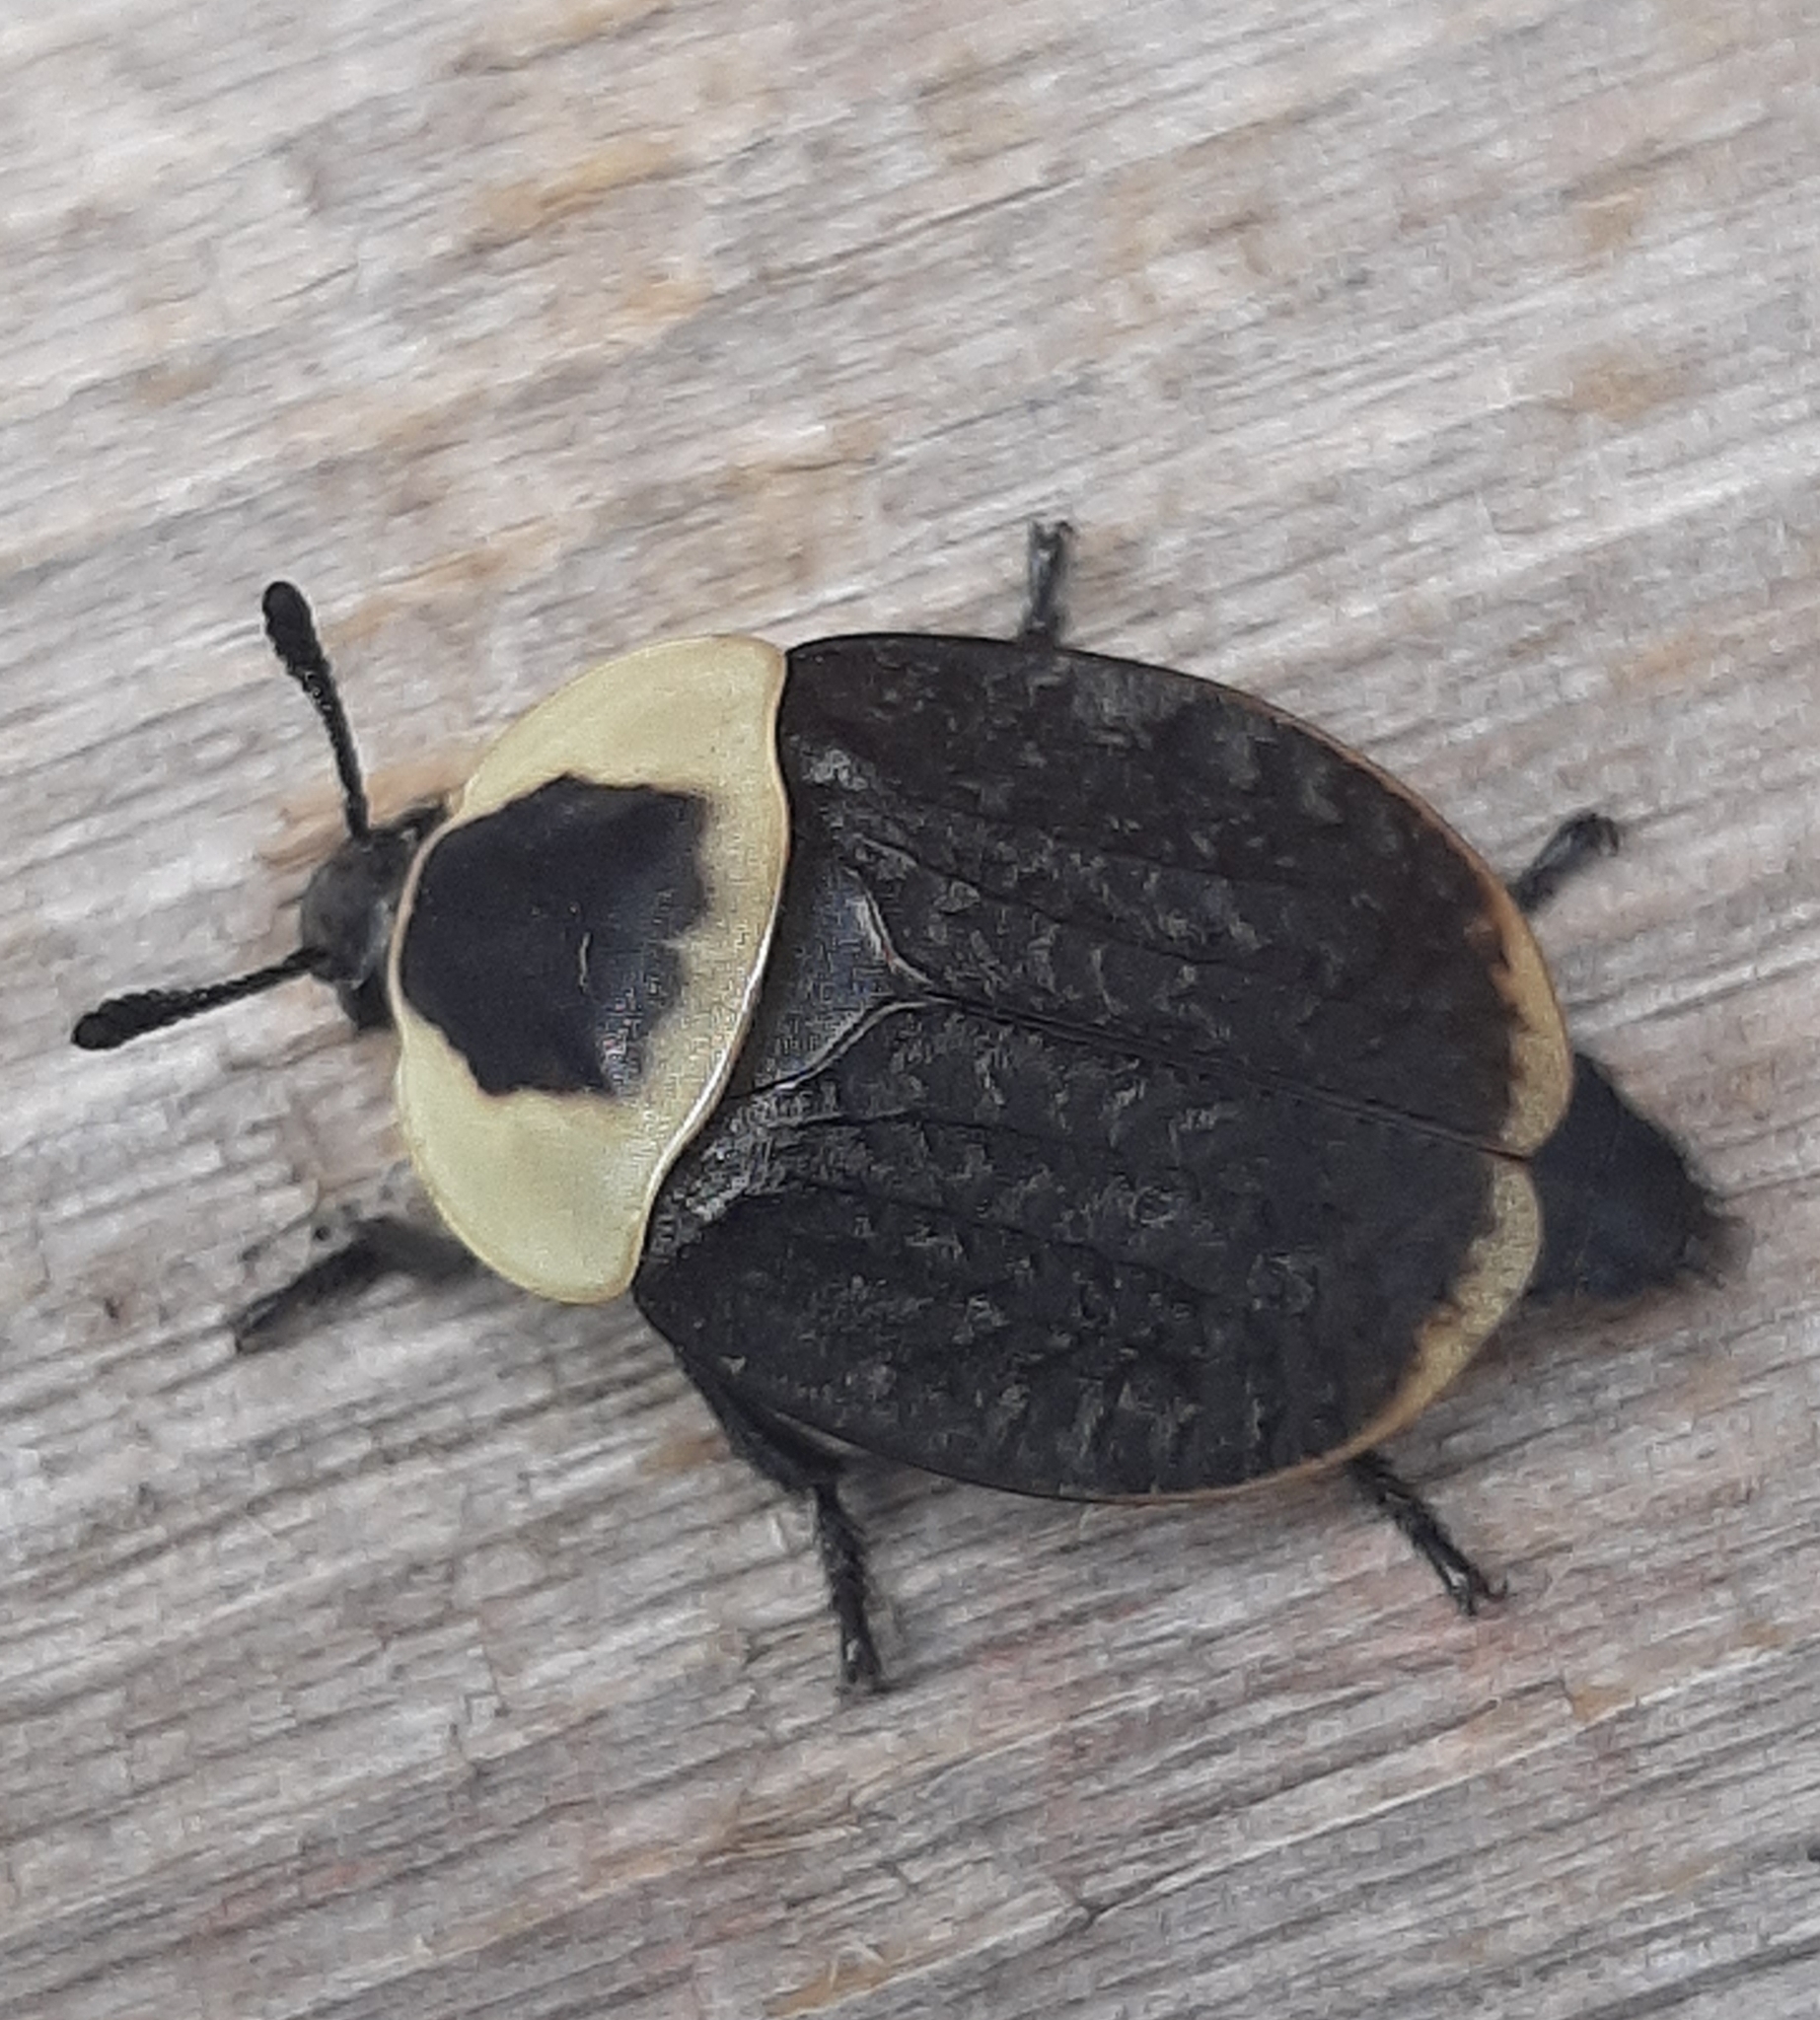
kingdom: Animalia
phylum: Arthropoda
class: Insecta
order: Coleoptera
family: Staphylinidae
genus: Necrophila
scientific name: Necrophila americana
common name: American carrion beetle
